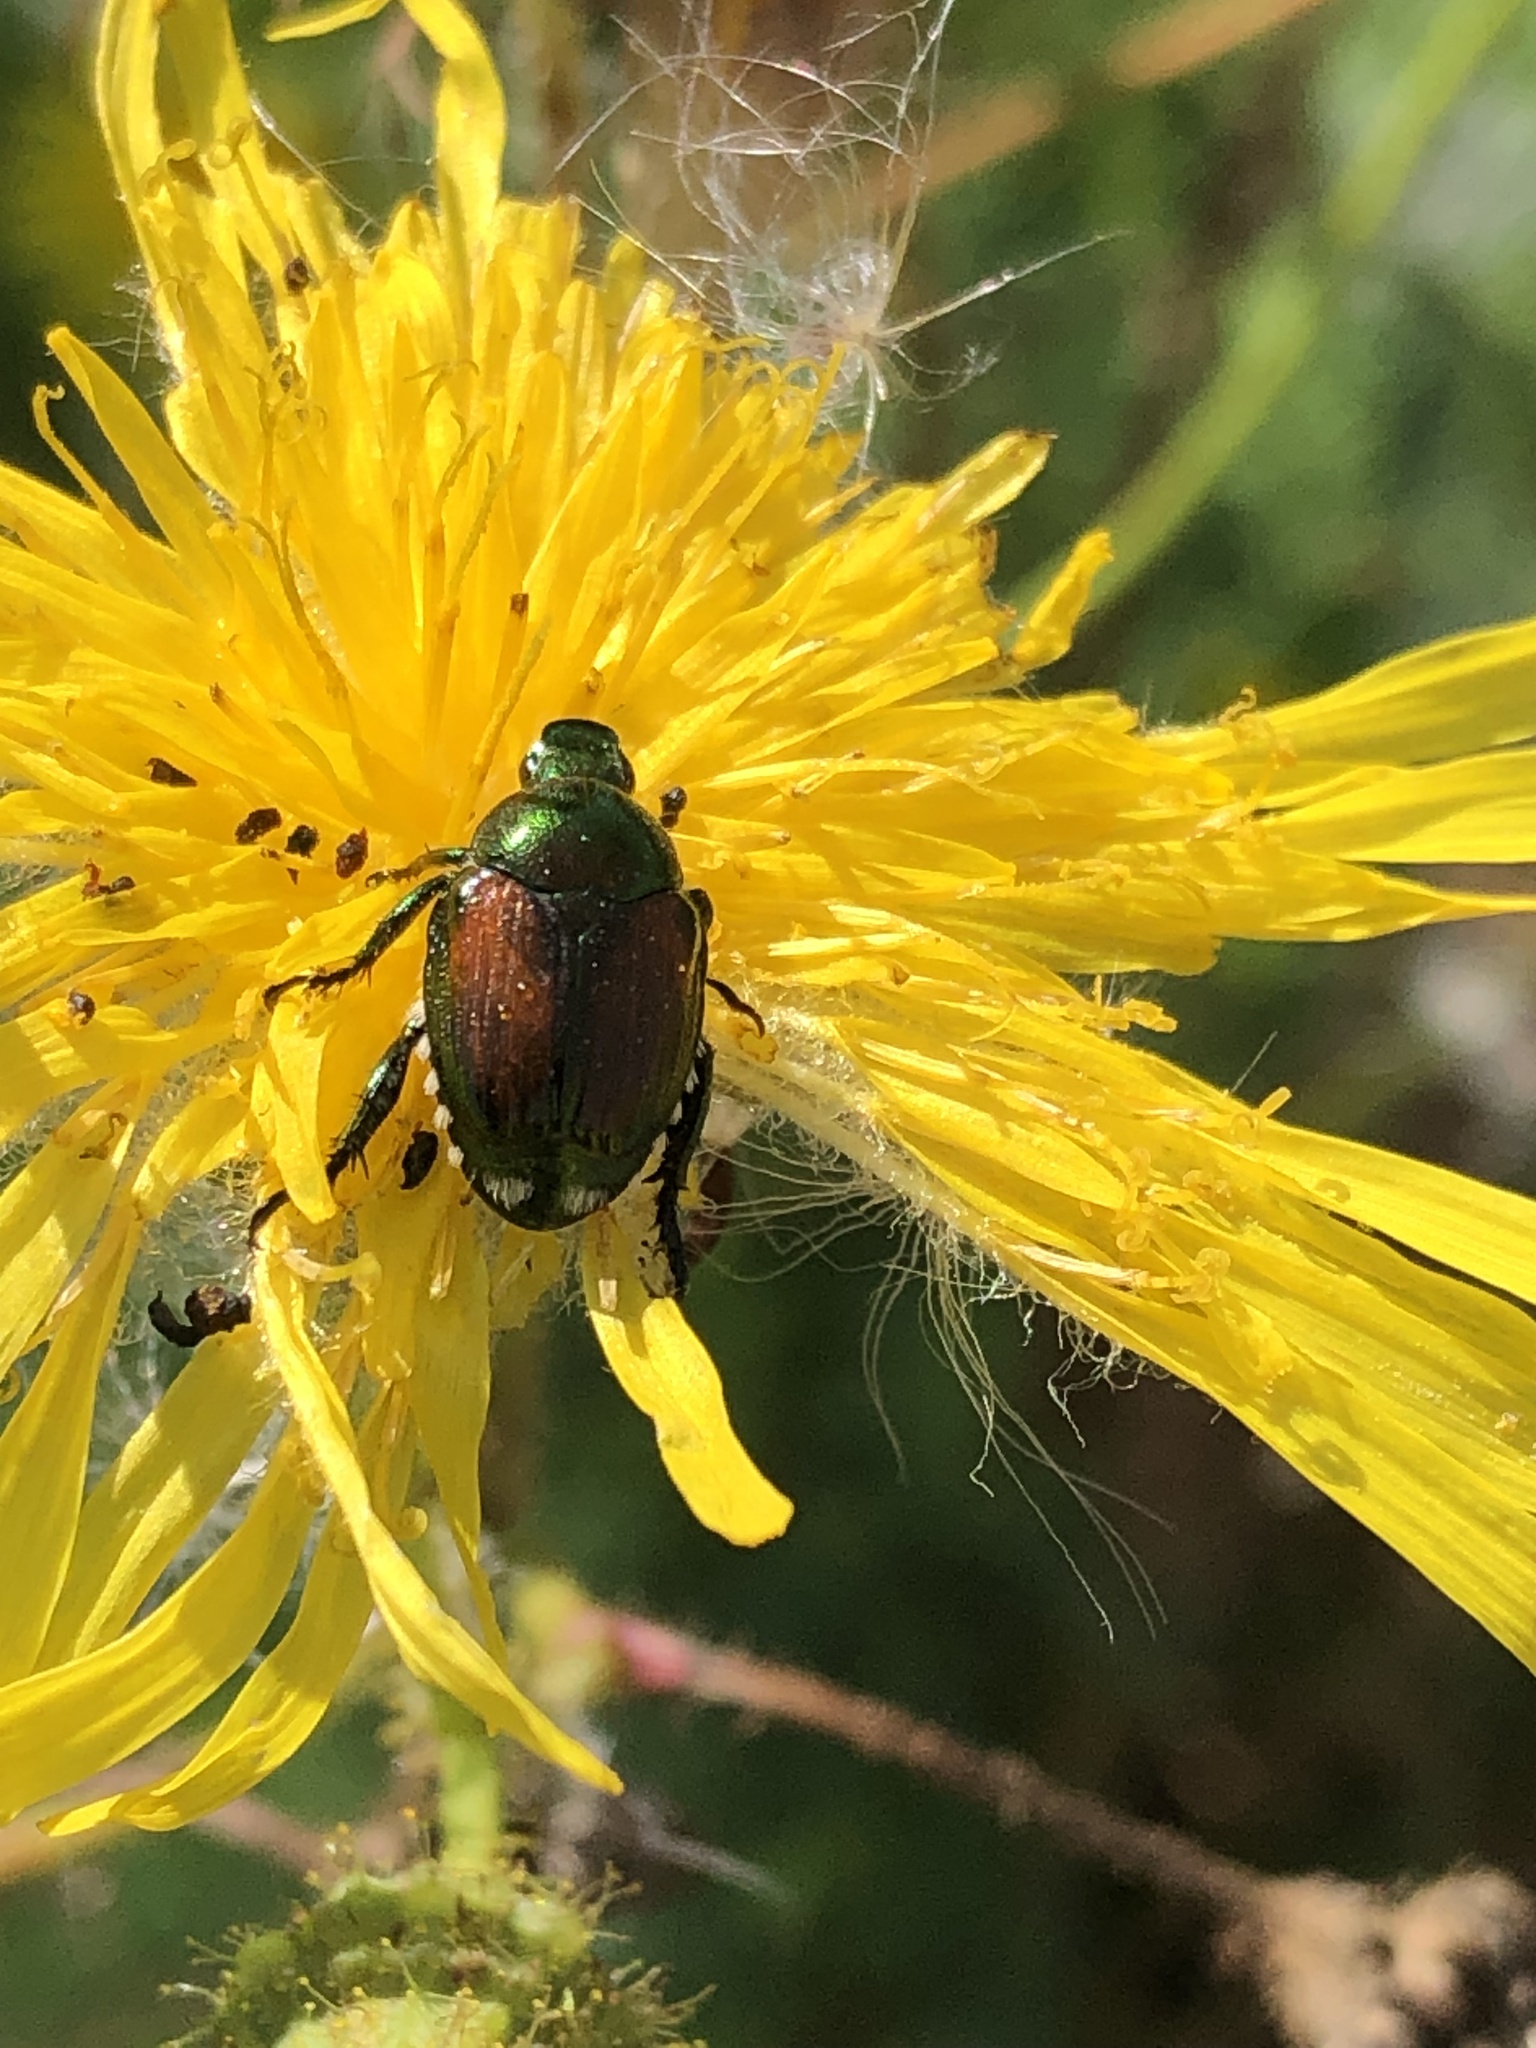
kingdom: Animalia
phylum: Arthropoda
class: Insecta
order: Coleoptera
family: Scarabaeidae
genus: Popillia
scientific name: Popillia japonica
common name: Japanese beetle
